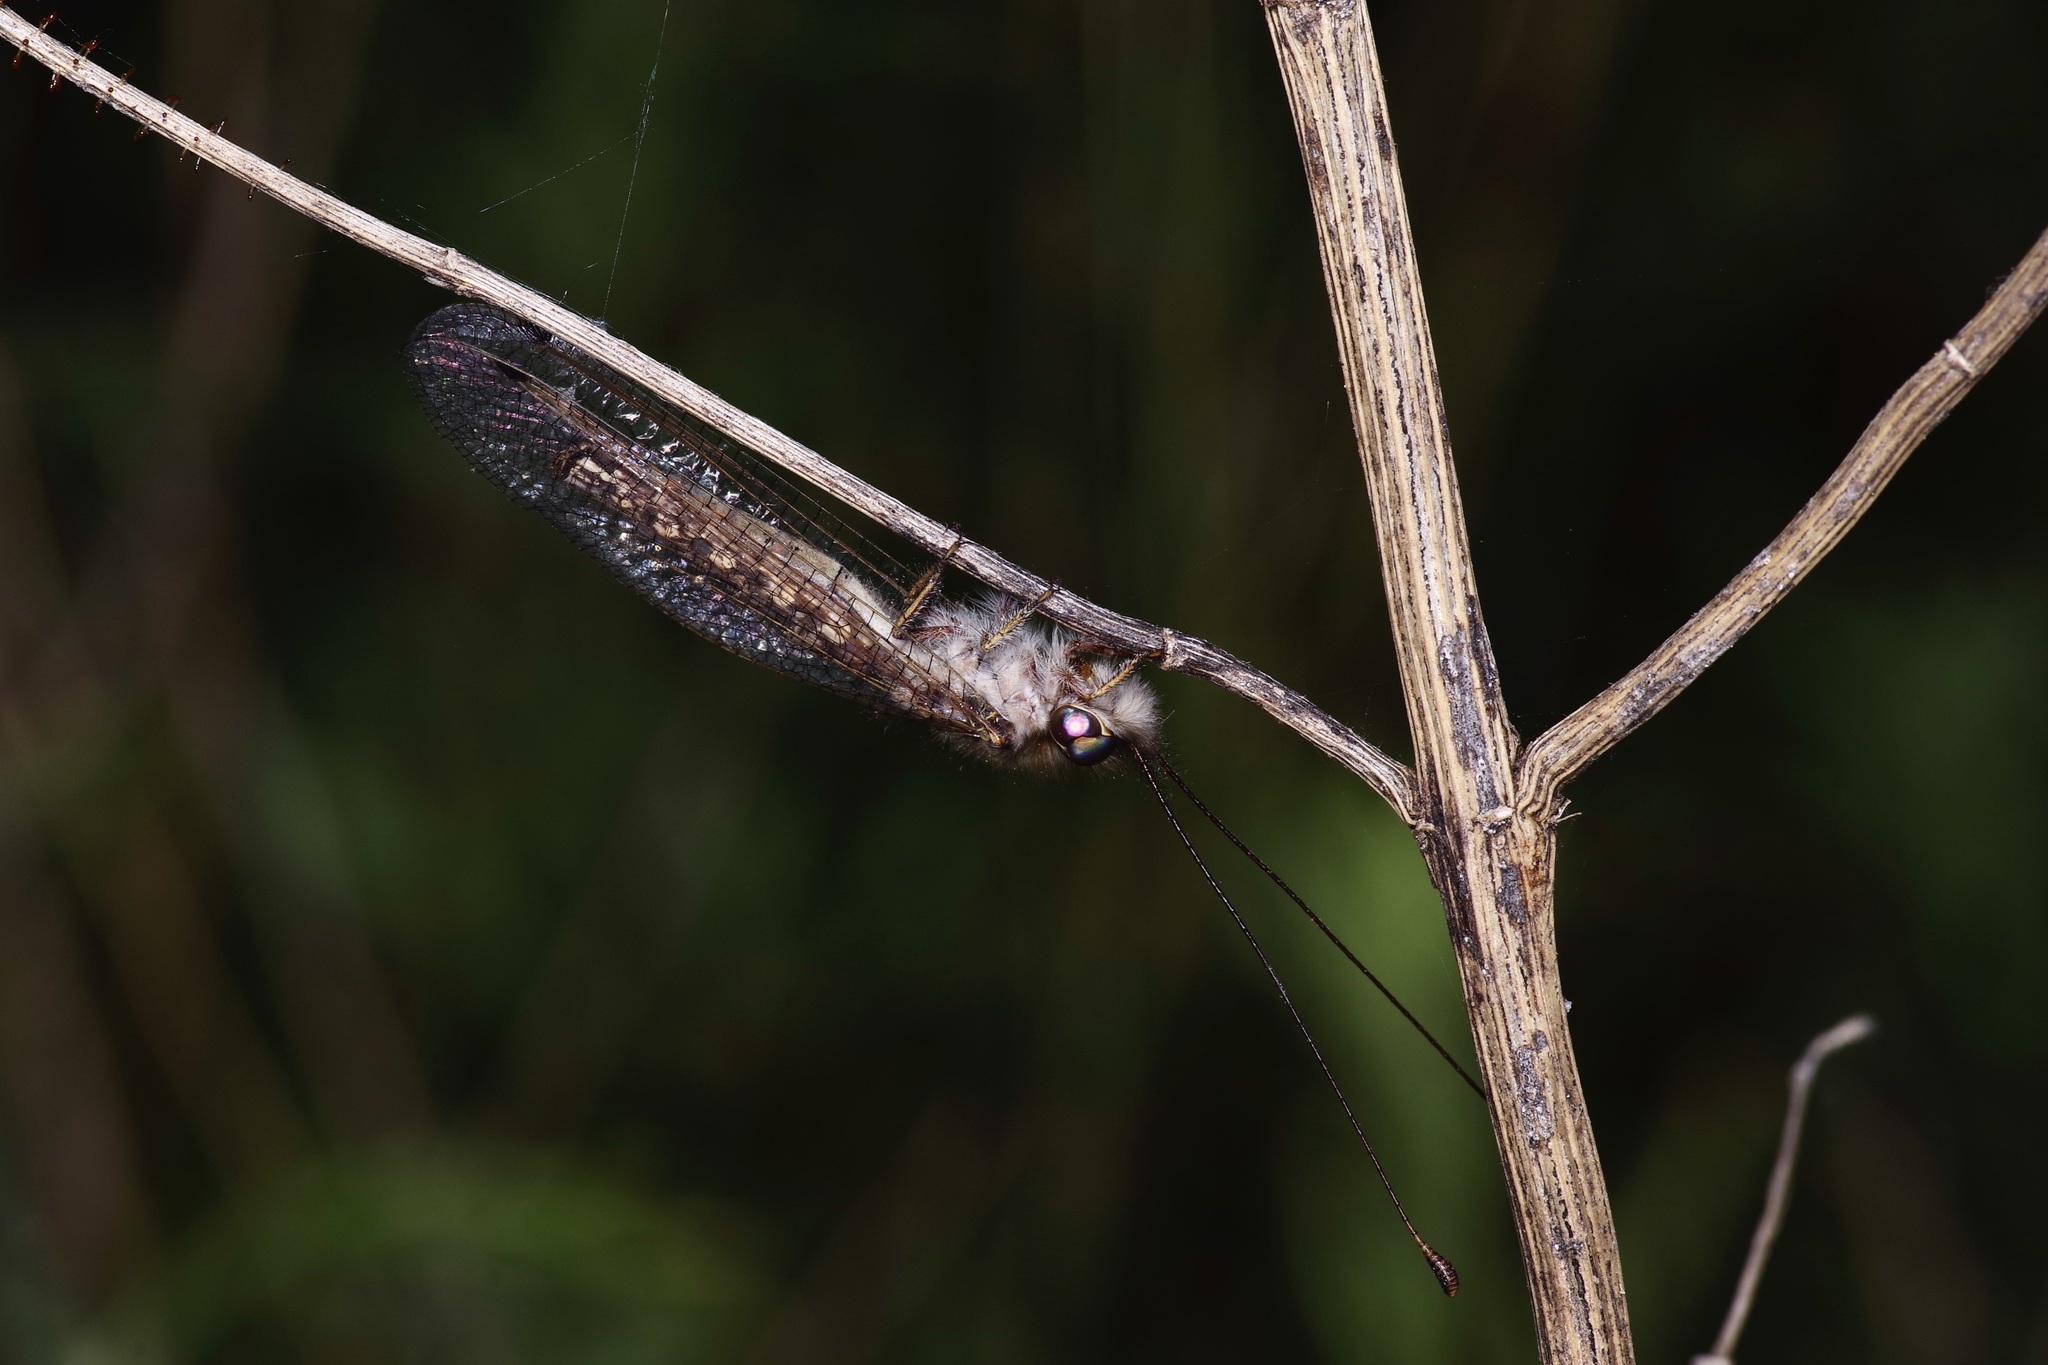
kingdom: Animalia
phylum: Arthropoda
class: Insecta
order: Neuroptera
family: Ascalaphidae
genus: Ululodes
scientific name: Ululodes macleayanus
